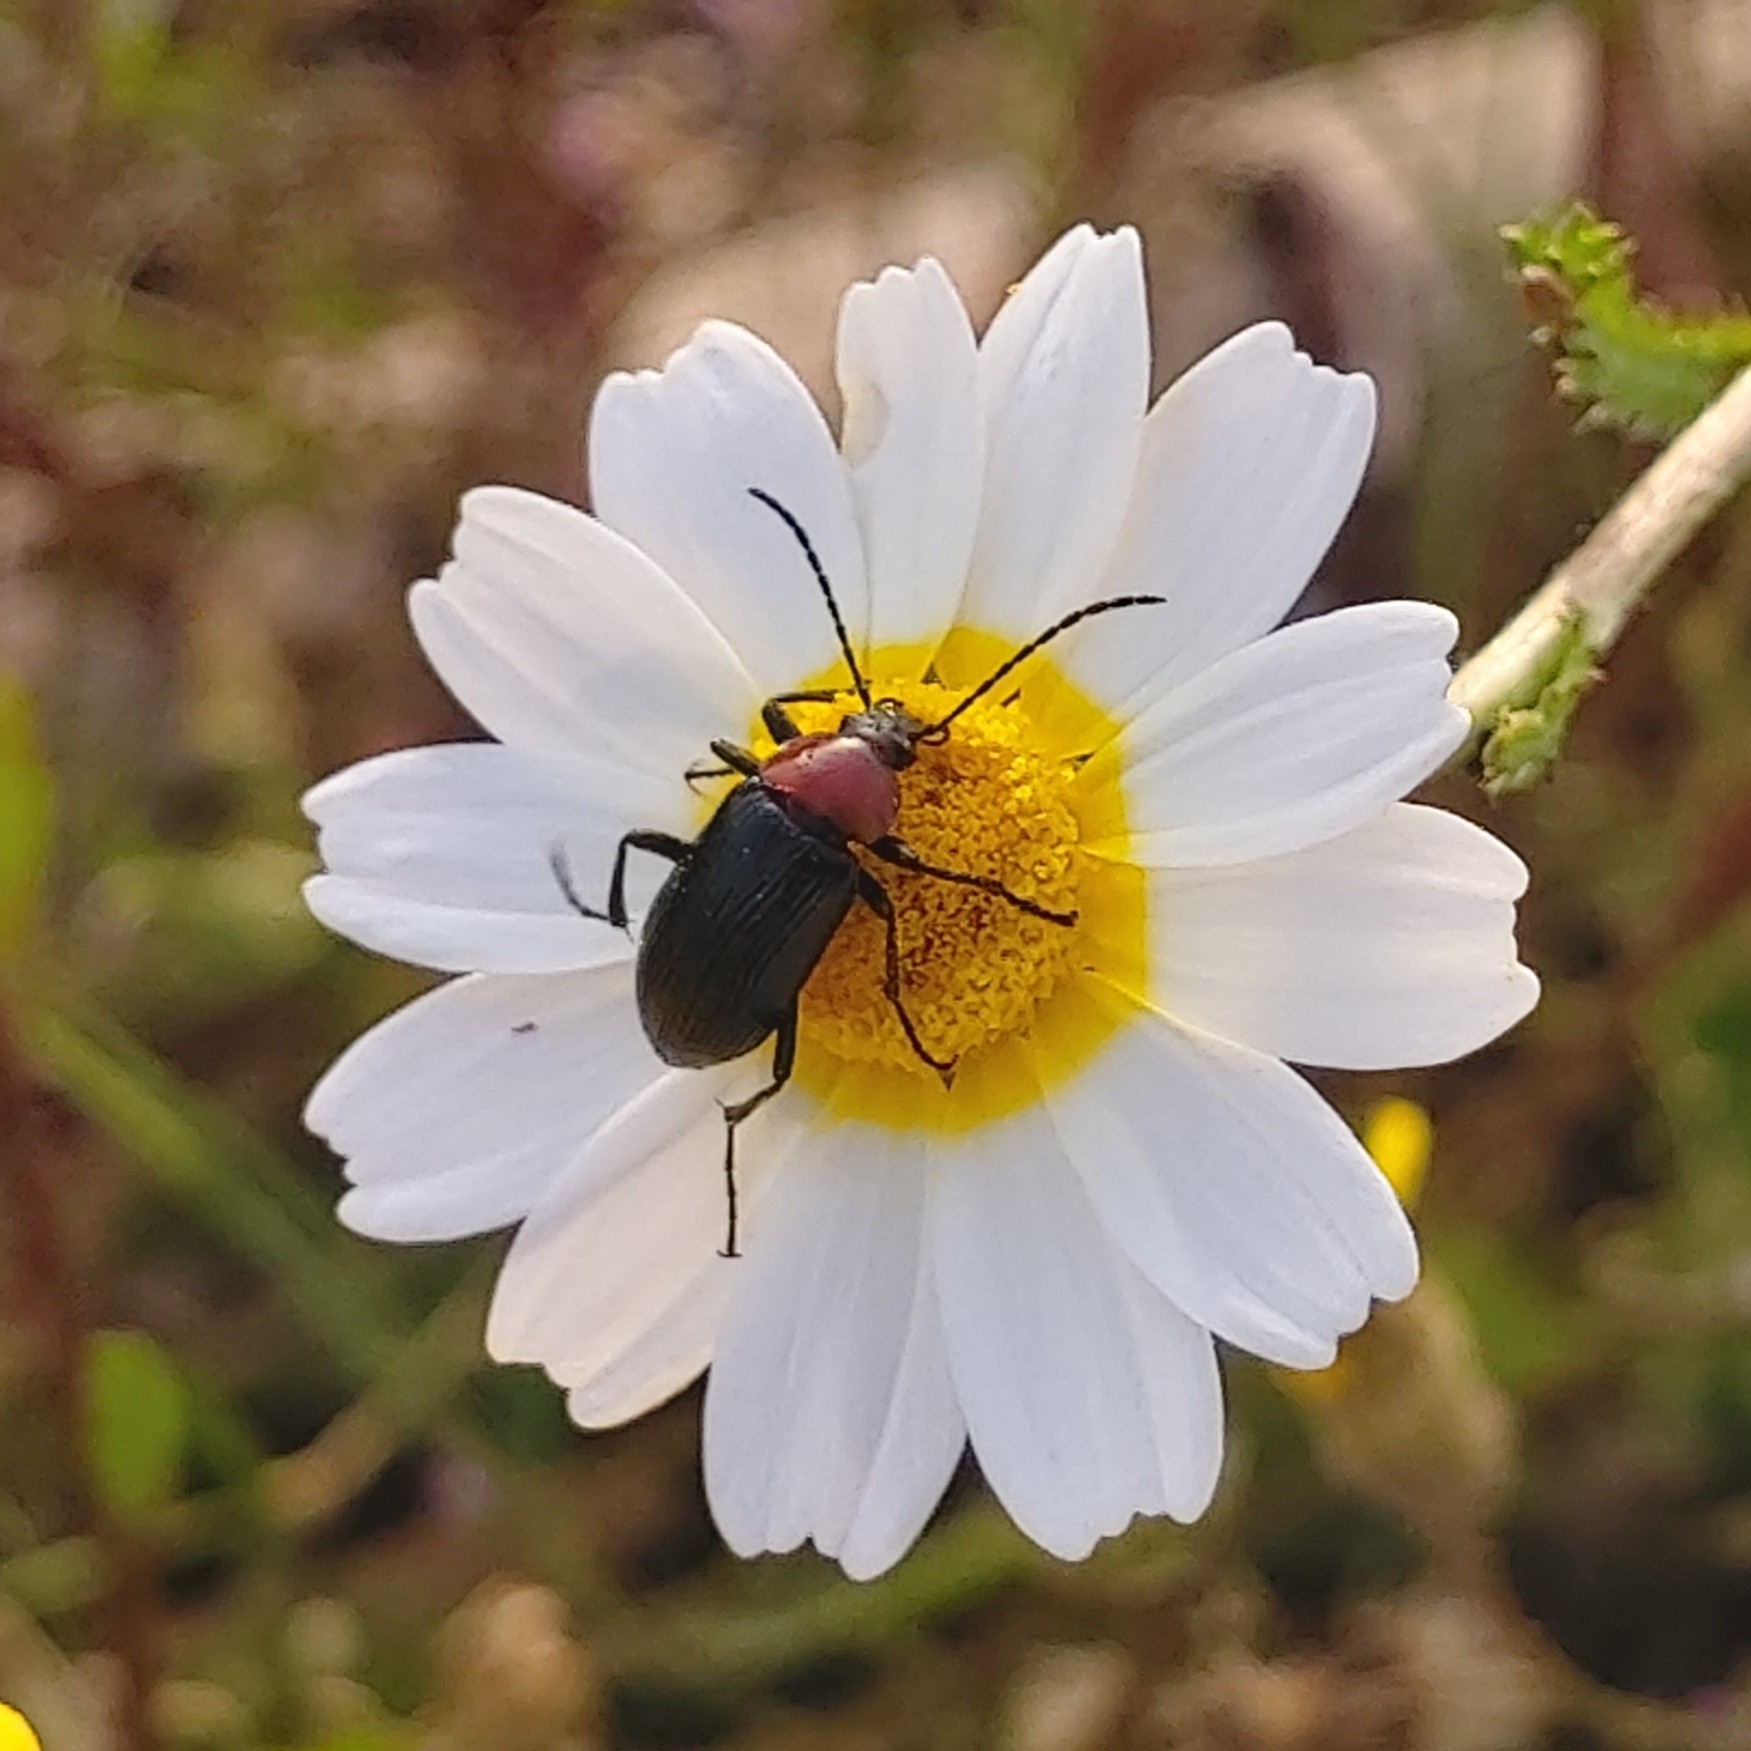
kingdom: Animalia
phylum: Arthropoda
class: Insecta
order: Coleoptera
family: Tenebrionidae
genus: Heliotaurus
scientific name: Heliotaurus ruficollis
